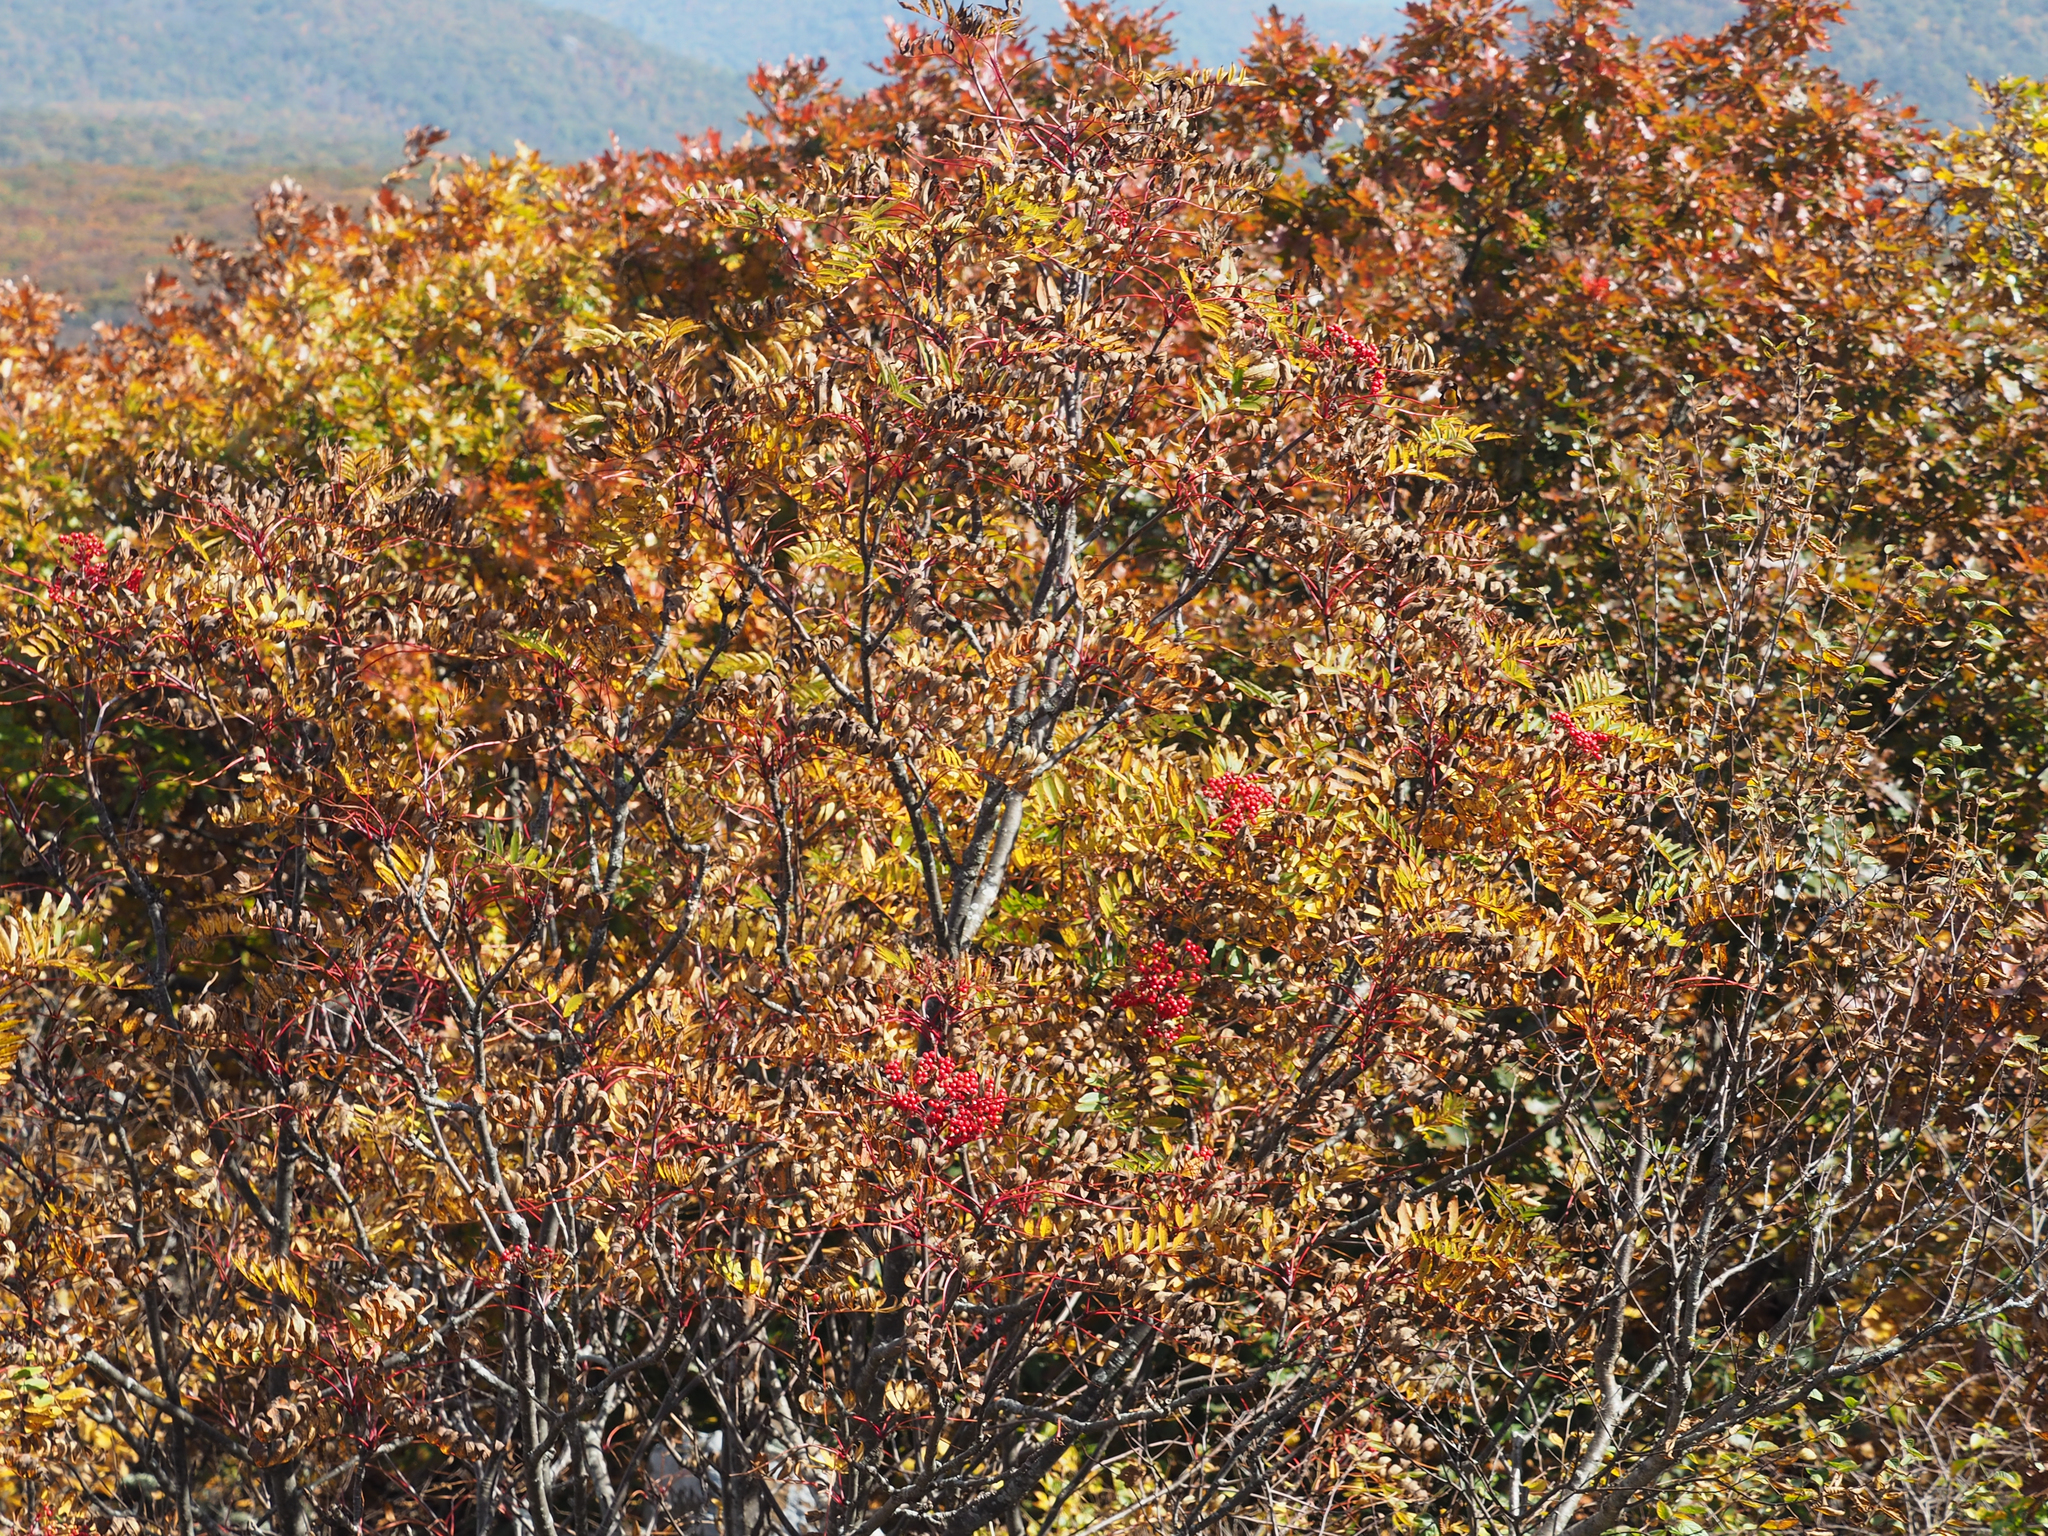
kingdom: Plantae
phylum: Tracheophyta
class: Magnoliopsida
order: Rosales
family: Rosaceae
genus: Sorbus
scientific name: Sorbus americana
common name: American mountain-ash
